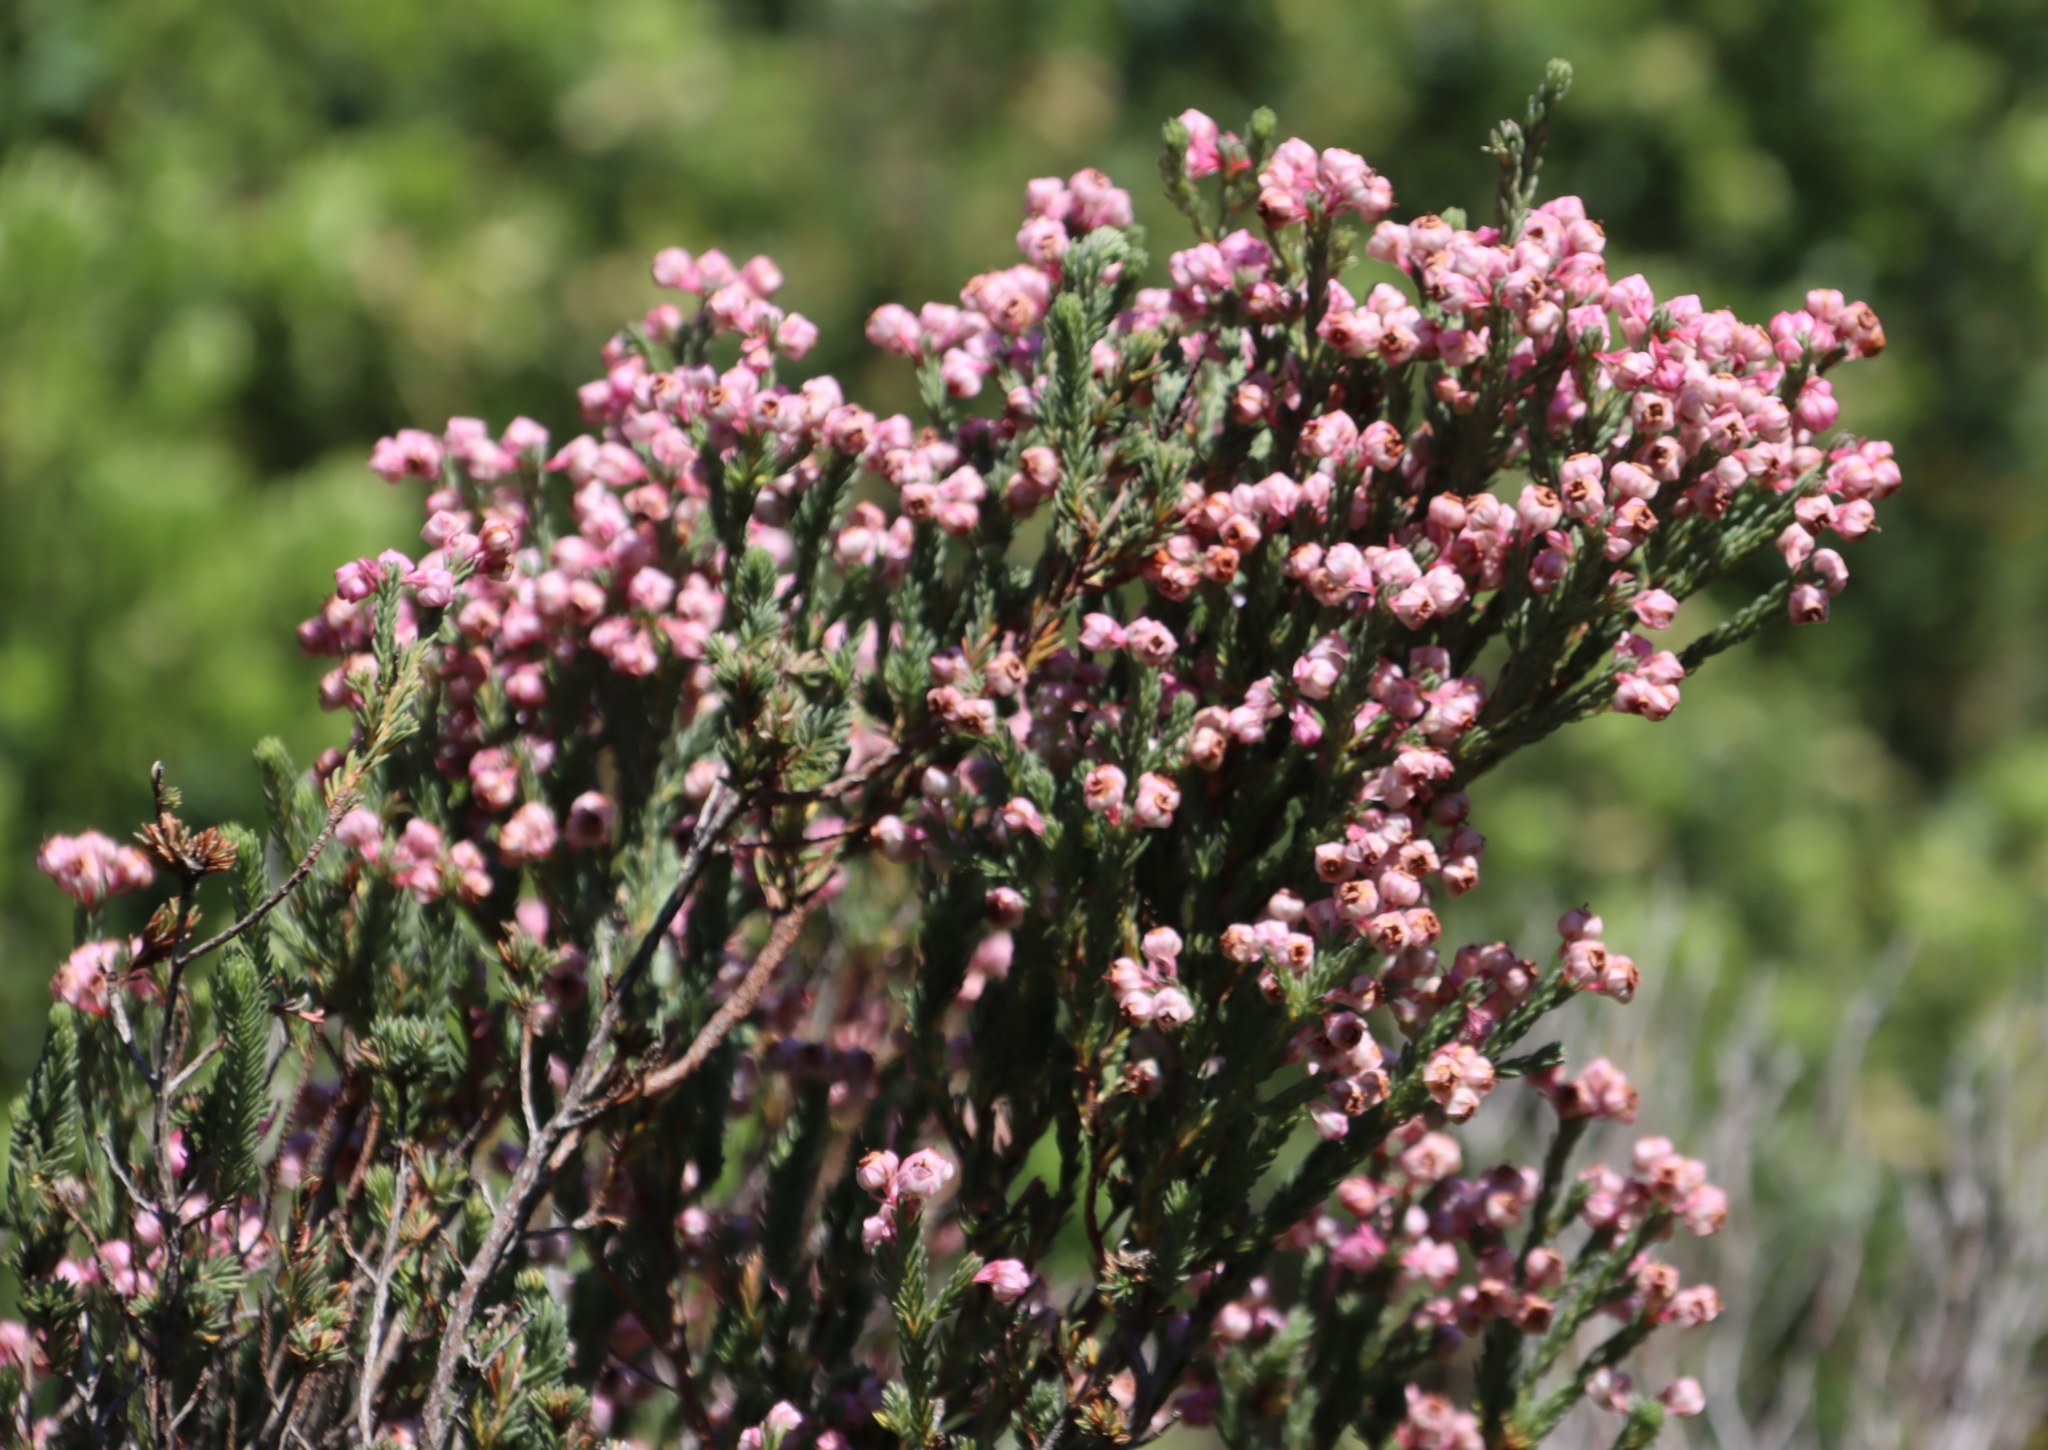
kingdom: Plantae
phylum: Tracheophyta
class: Magnoliopsida
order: Ericales
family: Ericaceae
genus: Erica
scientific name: Erica baccans
